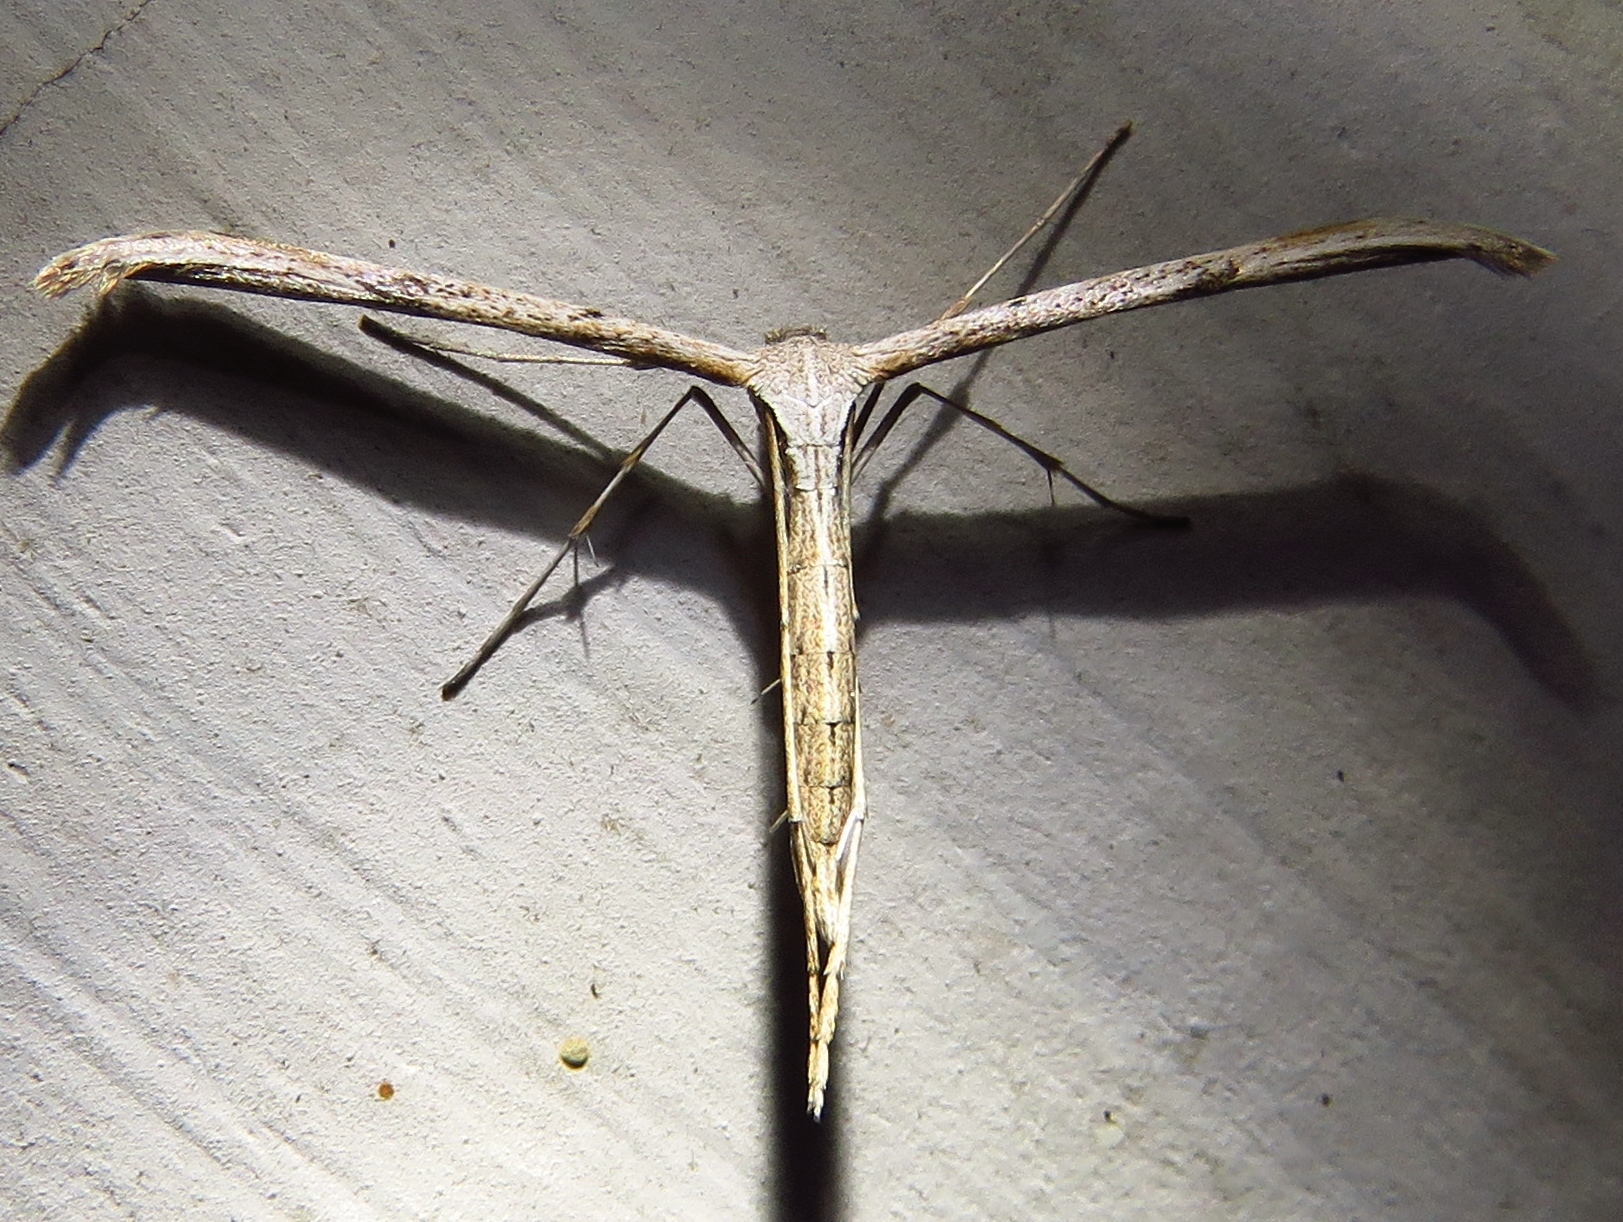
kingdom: Animalia
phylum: Arthropoda
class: Insecta
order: Lepidoptera
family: Pterophoridae
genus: Emmelina
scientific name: Emmelina monodactyla
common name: Common plume
